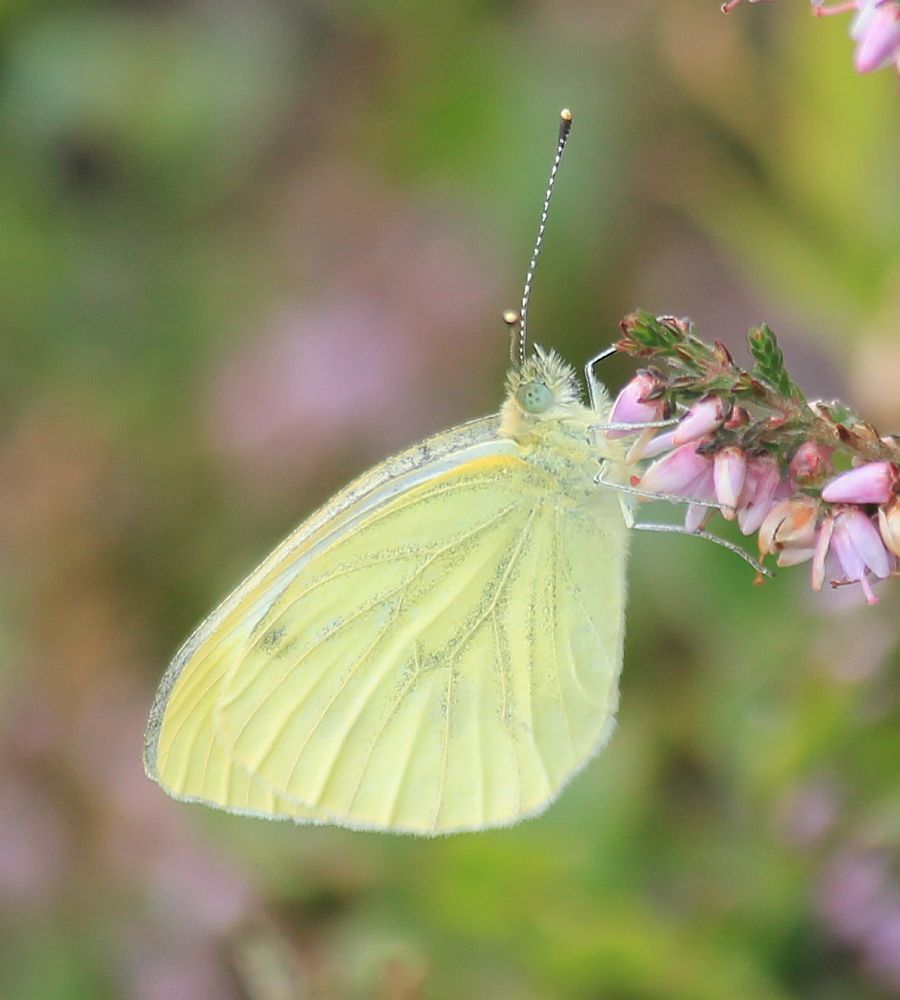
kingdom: Animalia
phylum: Arthropoda
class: Insecta
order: Lepidoptera
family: Pieridae
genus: Pieris
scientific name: Pieris napi
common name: Green-veined white
